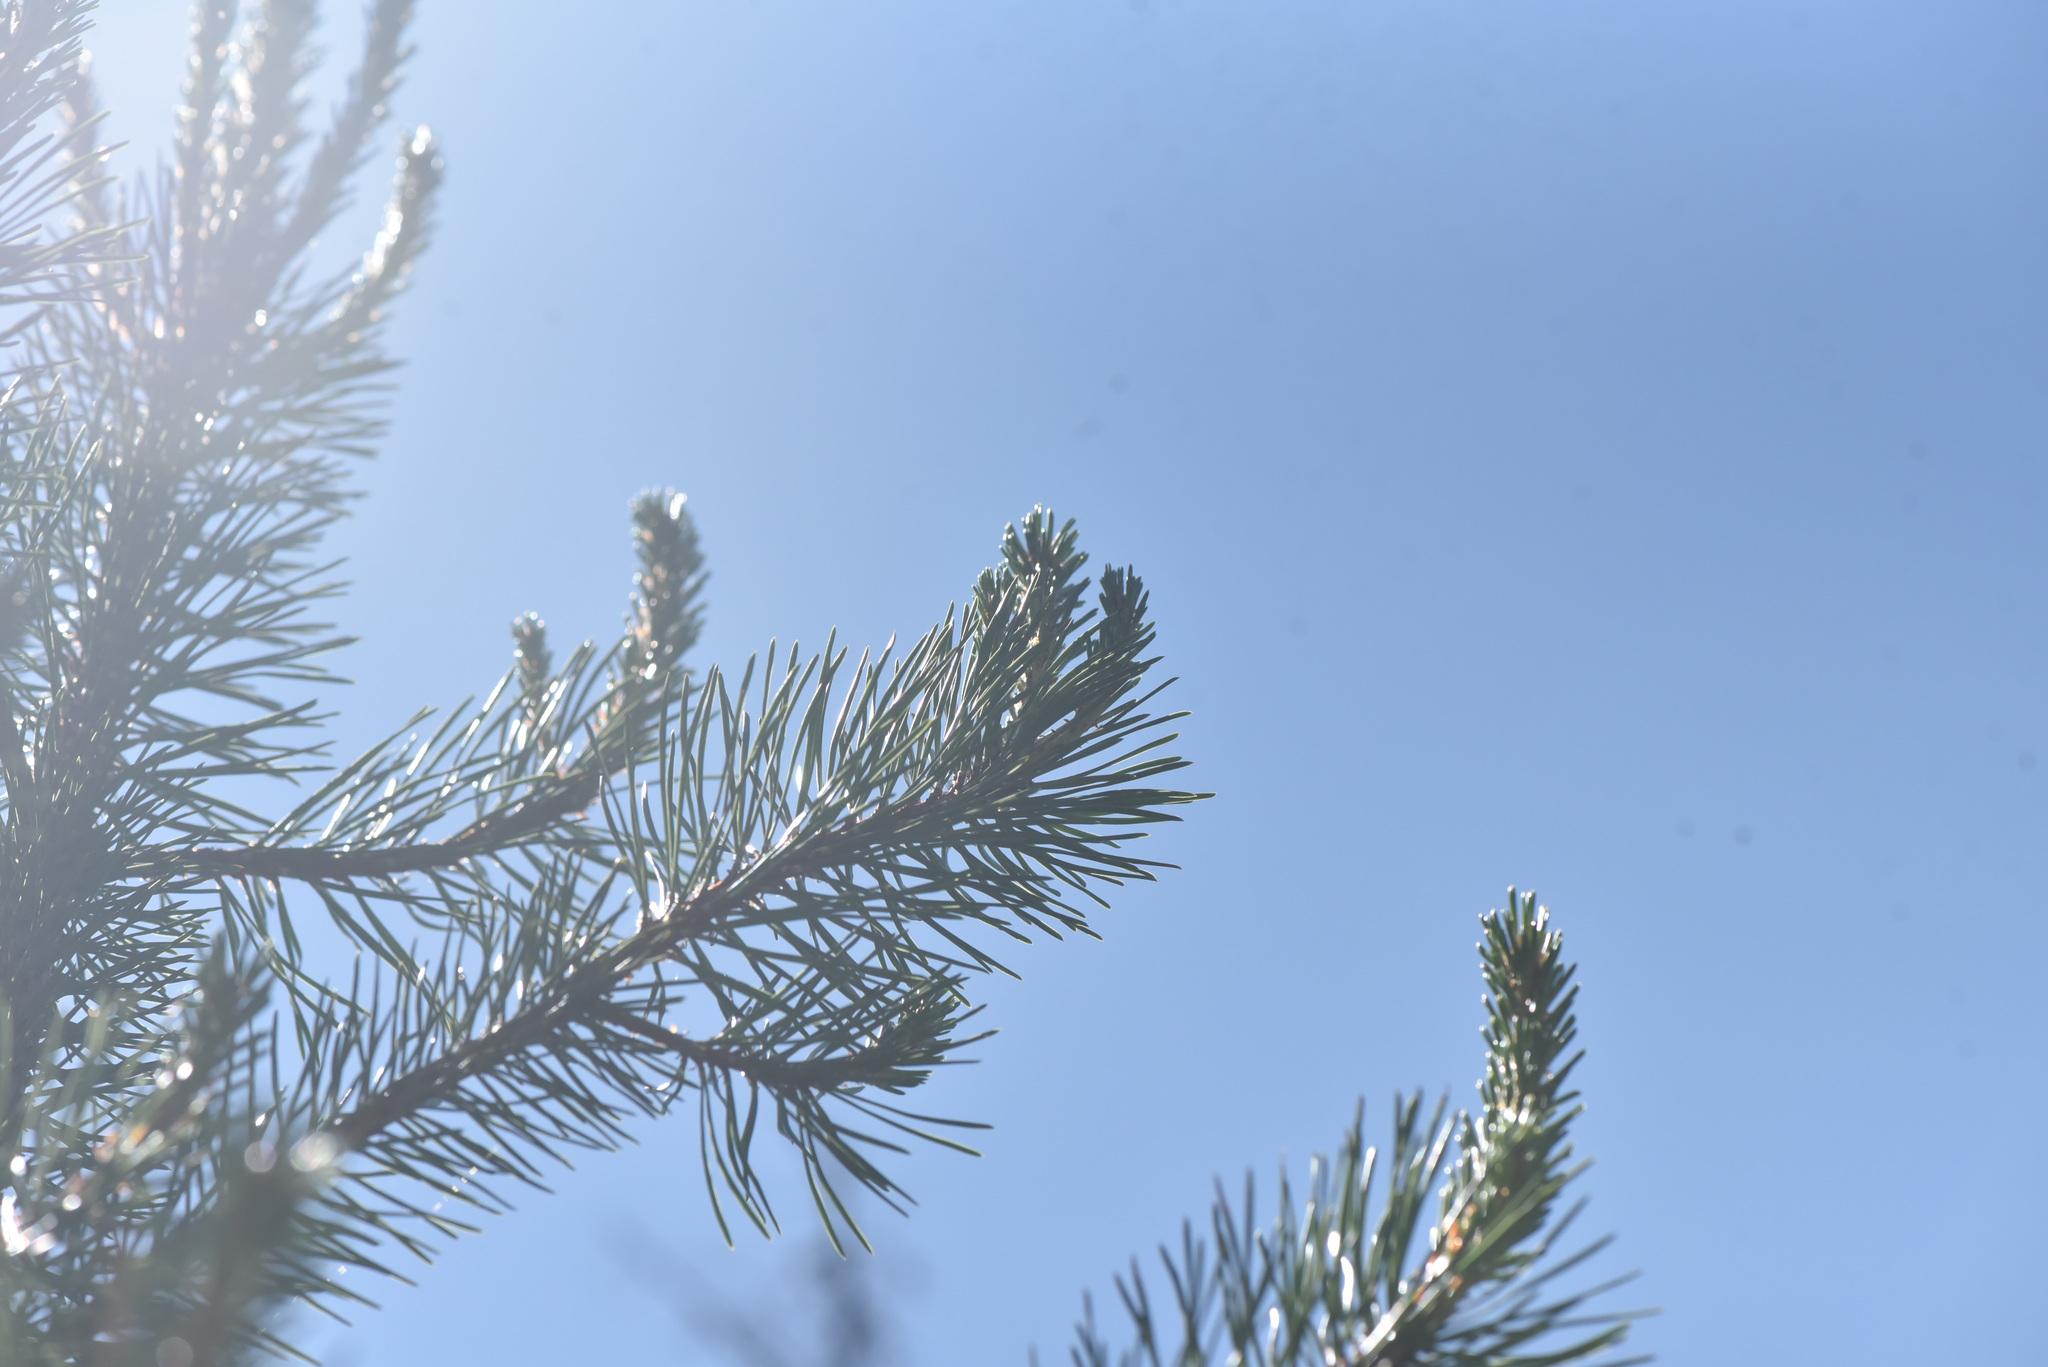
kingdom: Plantae
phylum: Tracheophyta
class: Pinopsida
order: Pinales
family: Pinaceae
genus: Pinus
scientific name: Pinus contorta
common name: Lodgepole pine
